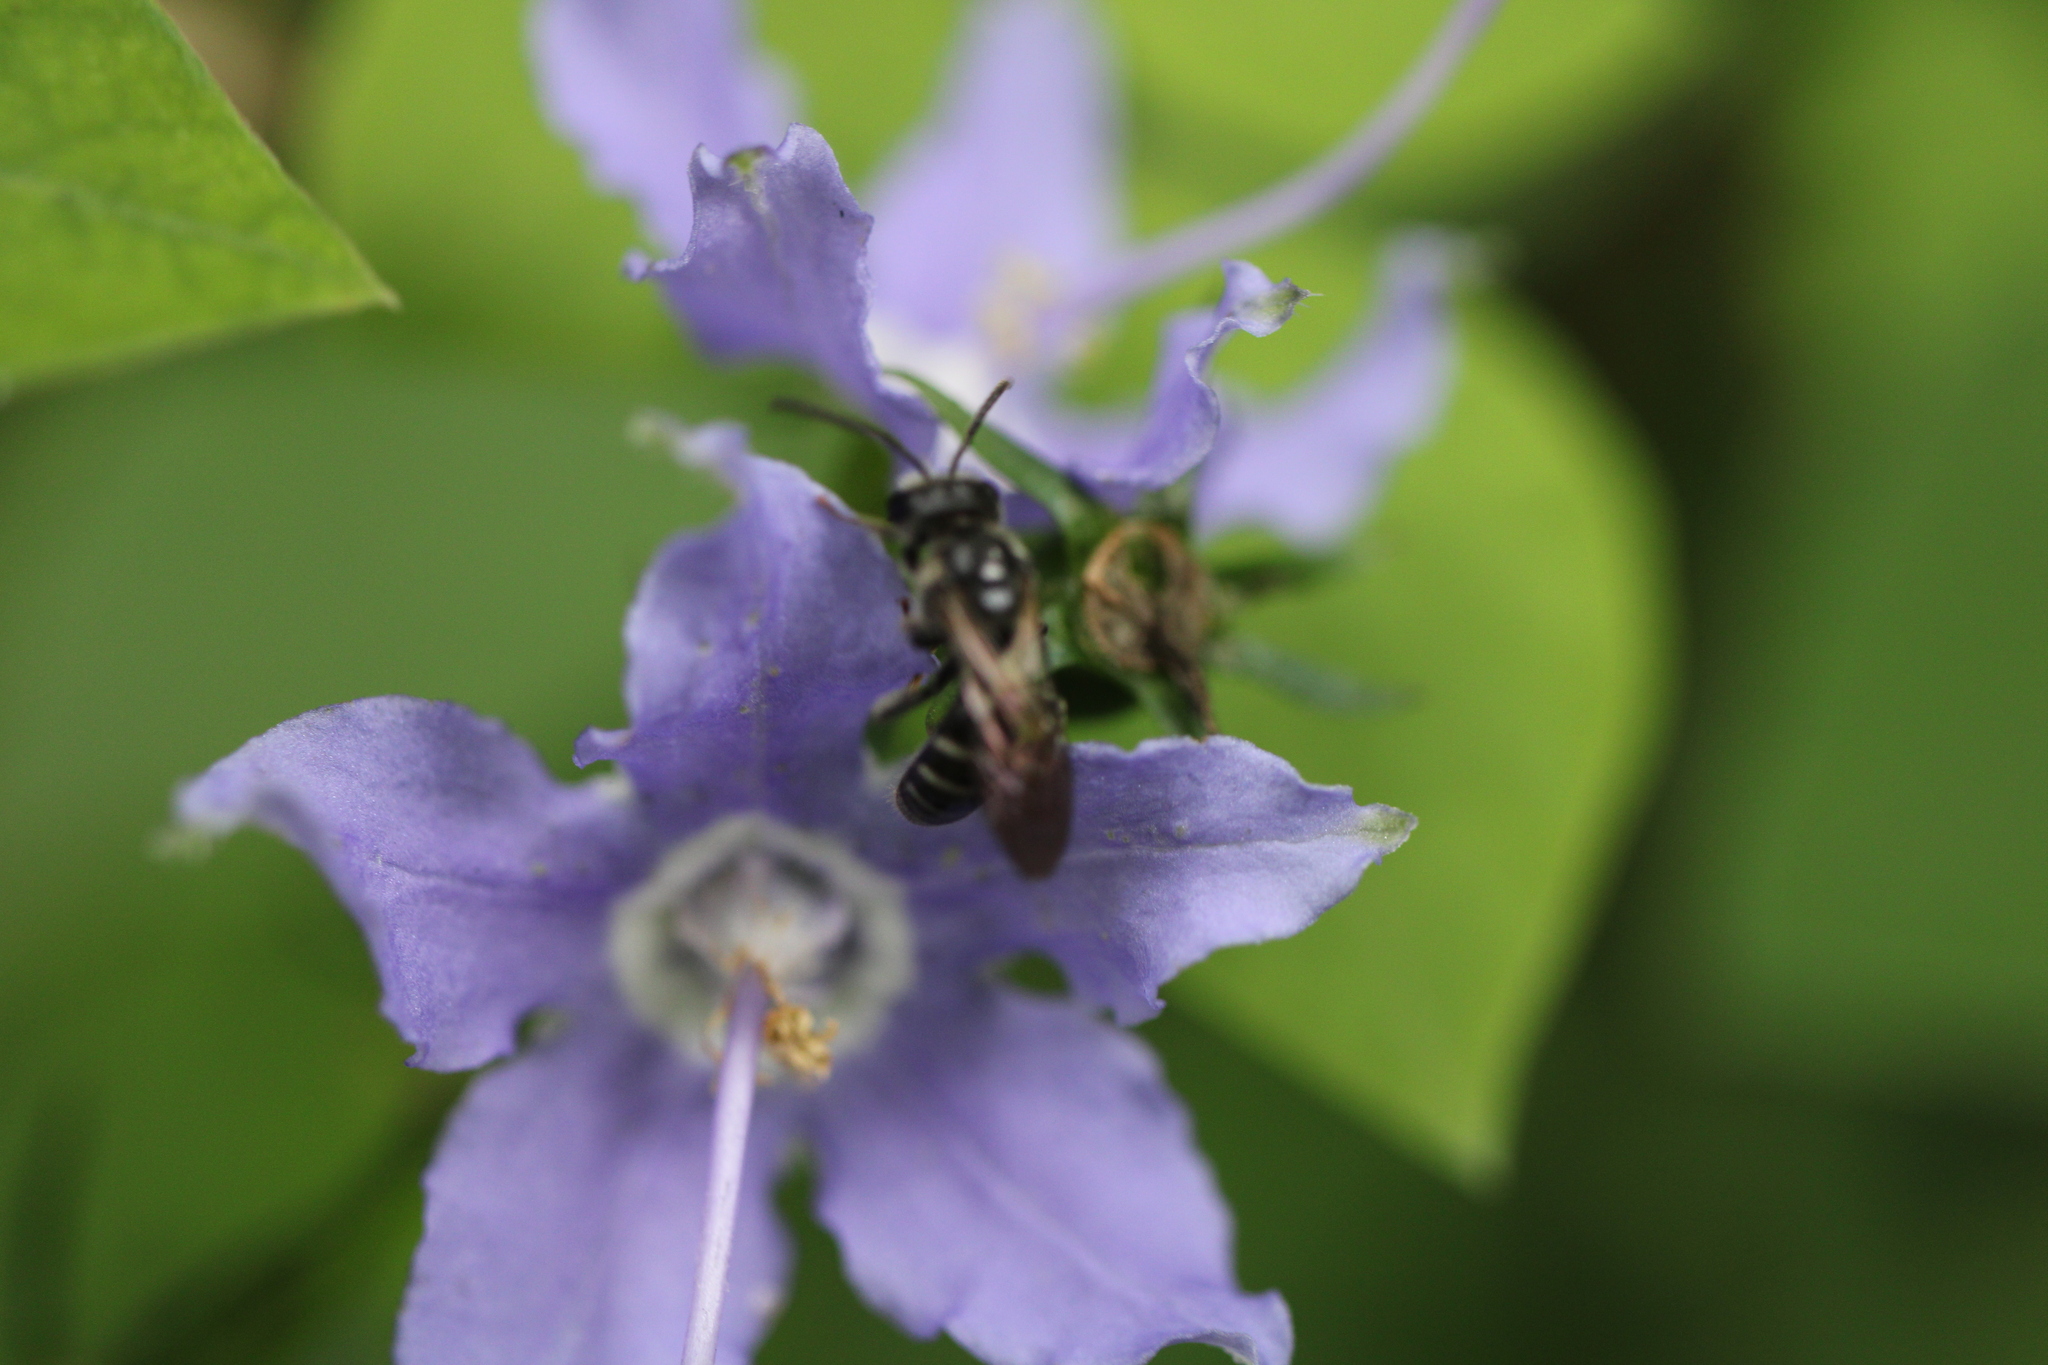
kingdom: Animalia
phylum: Arthropoda
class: Insecta
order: Hymenoptera
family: Halictidae
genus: Lasioglossum
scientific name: Lasioglossum coriaceum
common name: Leathery sweat bee
